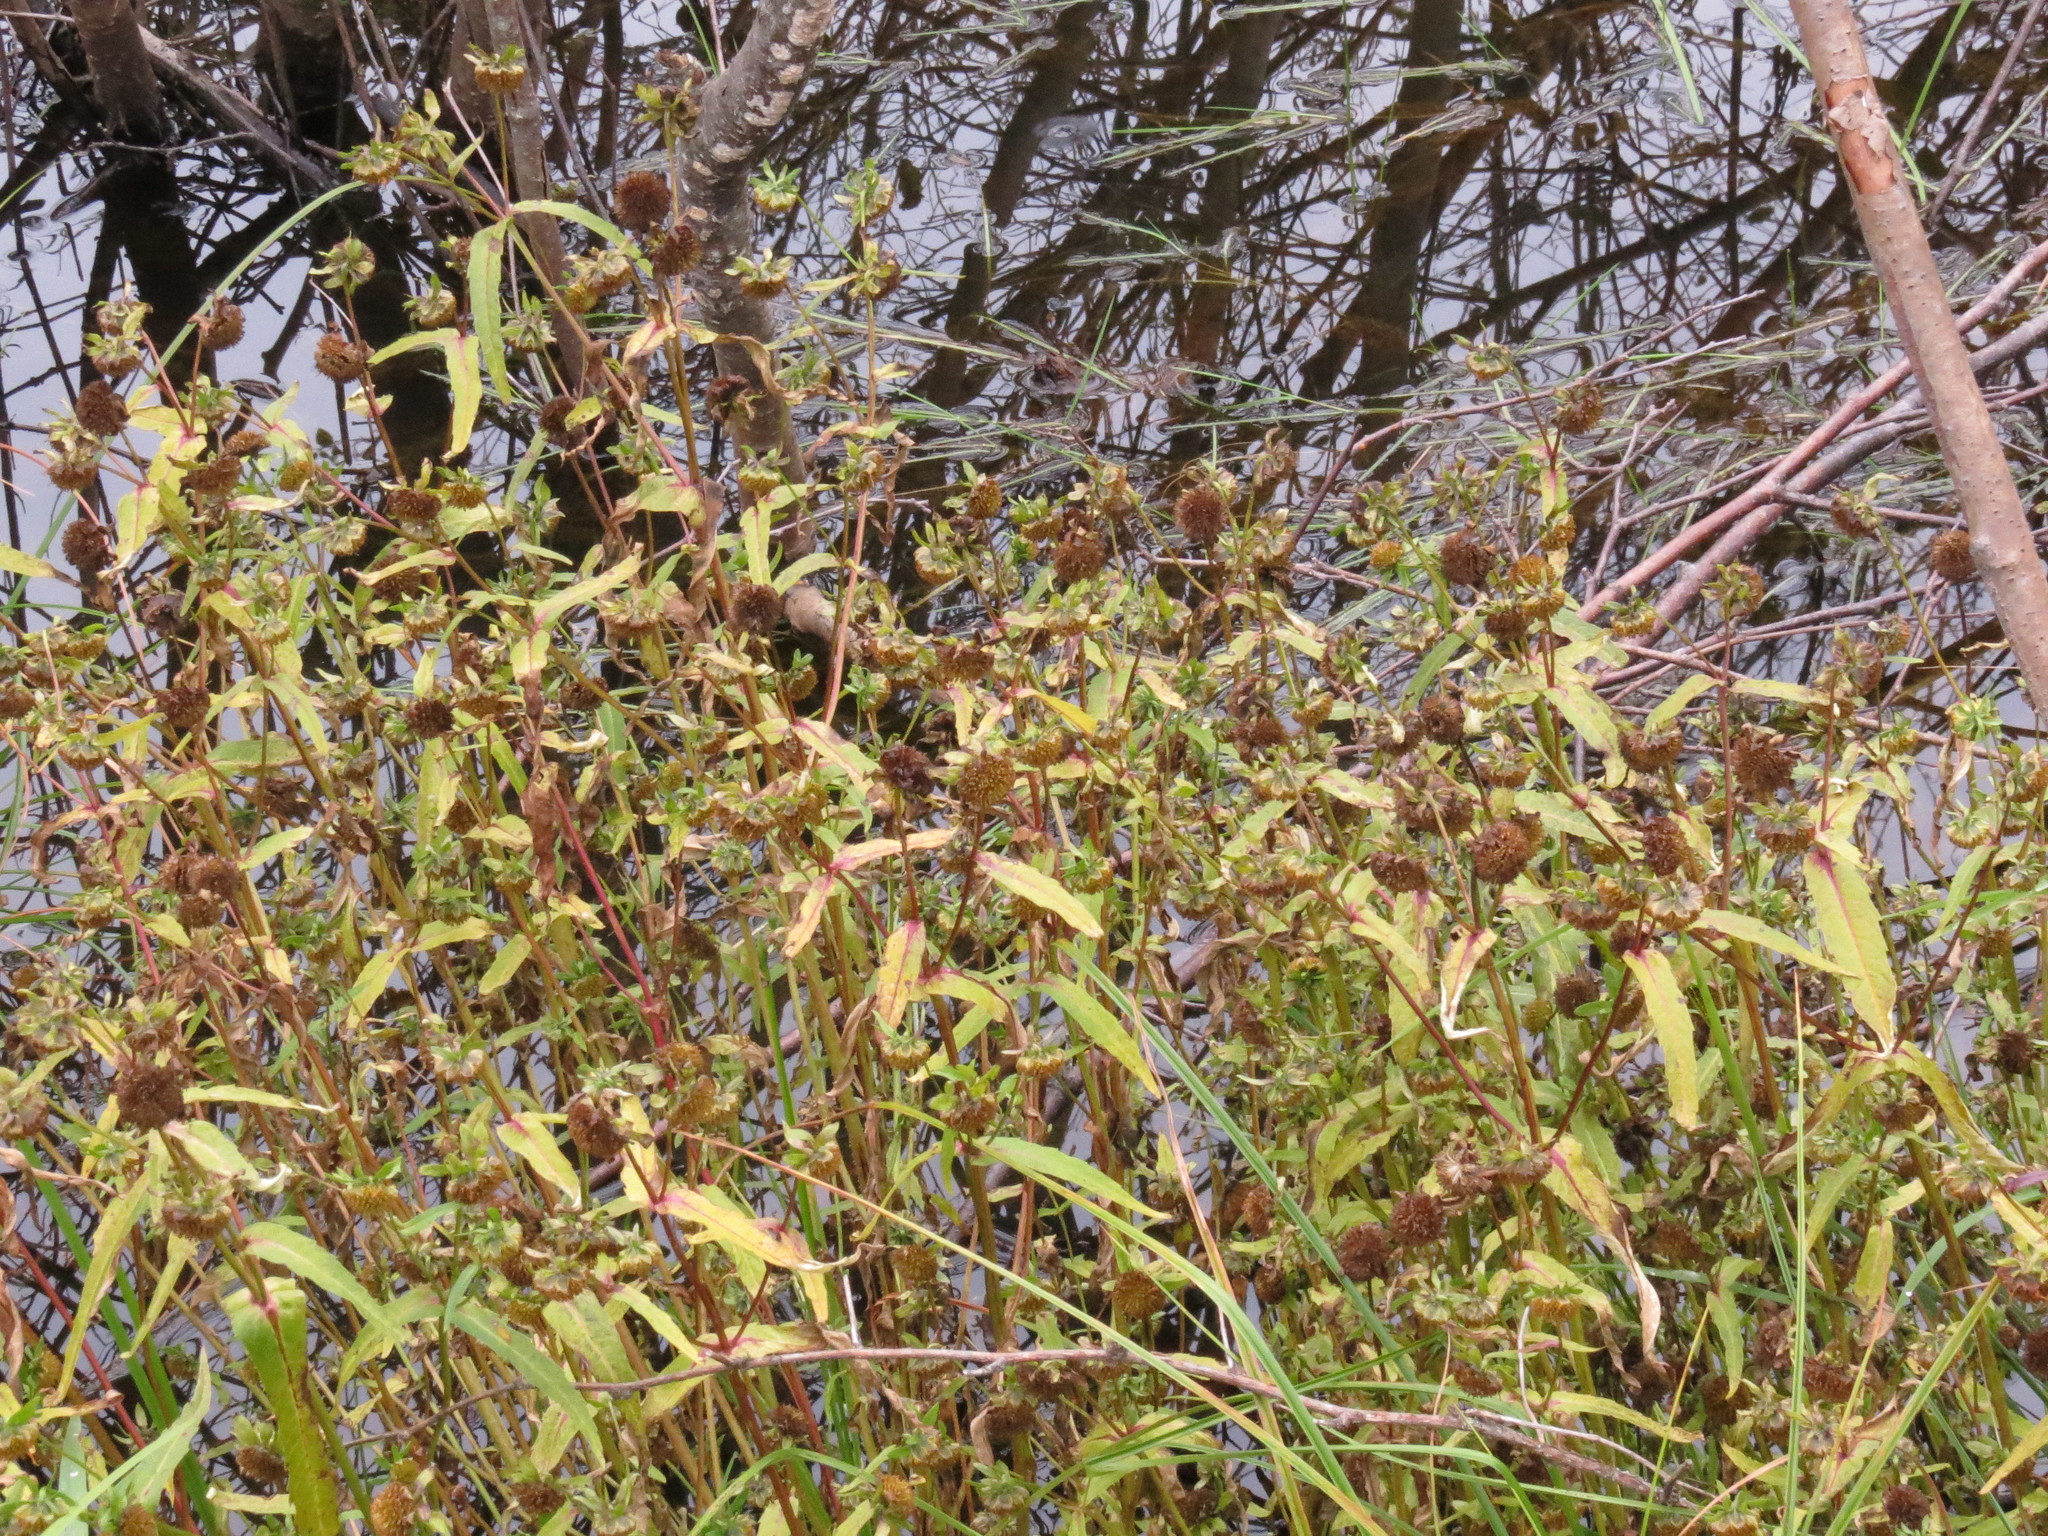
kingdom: Plantae
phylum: Tracheophyta
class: Magnoliopsida
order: Asterales
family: Asteraceae
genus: Bidens
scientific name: Bidens cernua
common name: Nodding bur-marigold
